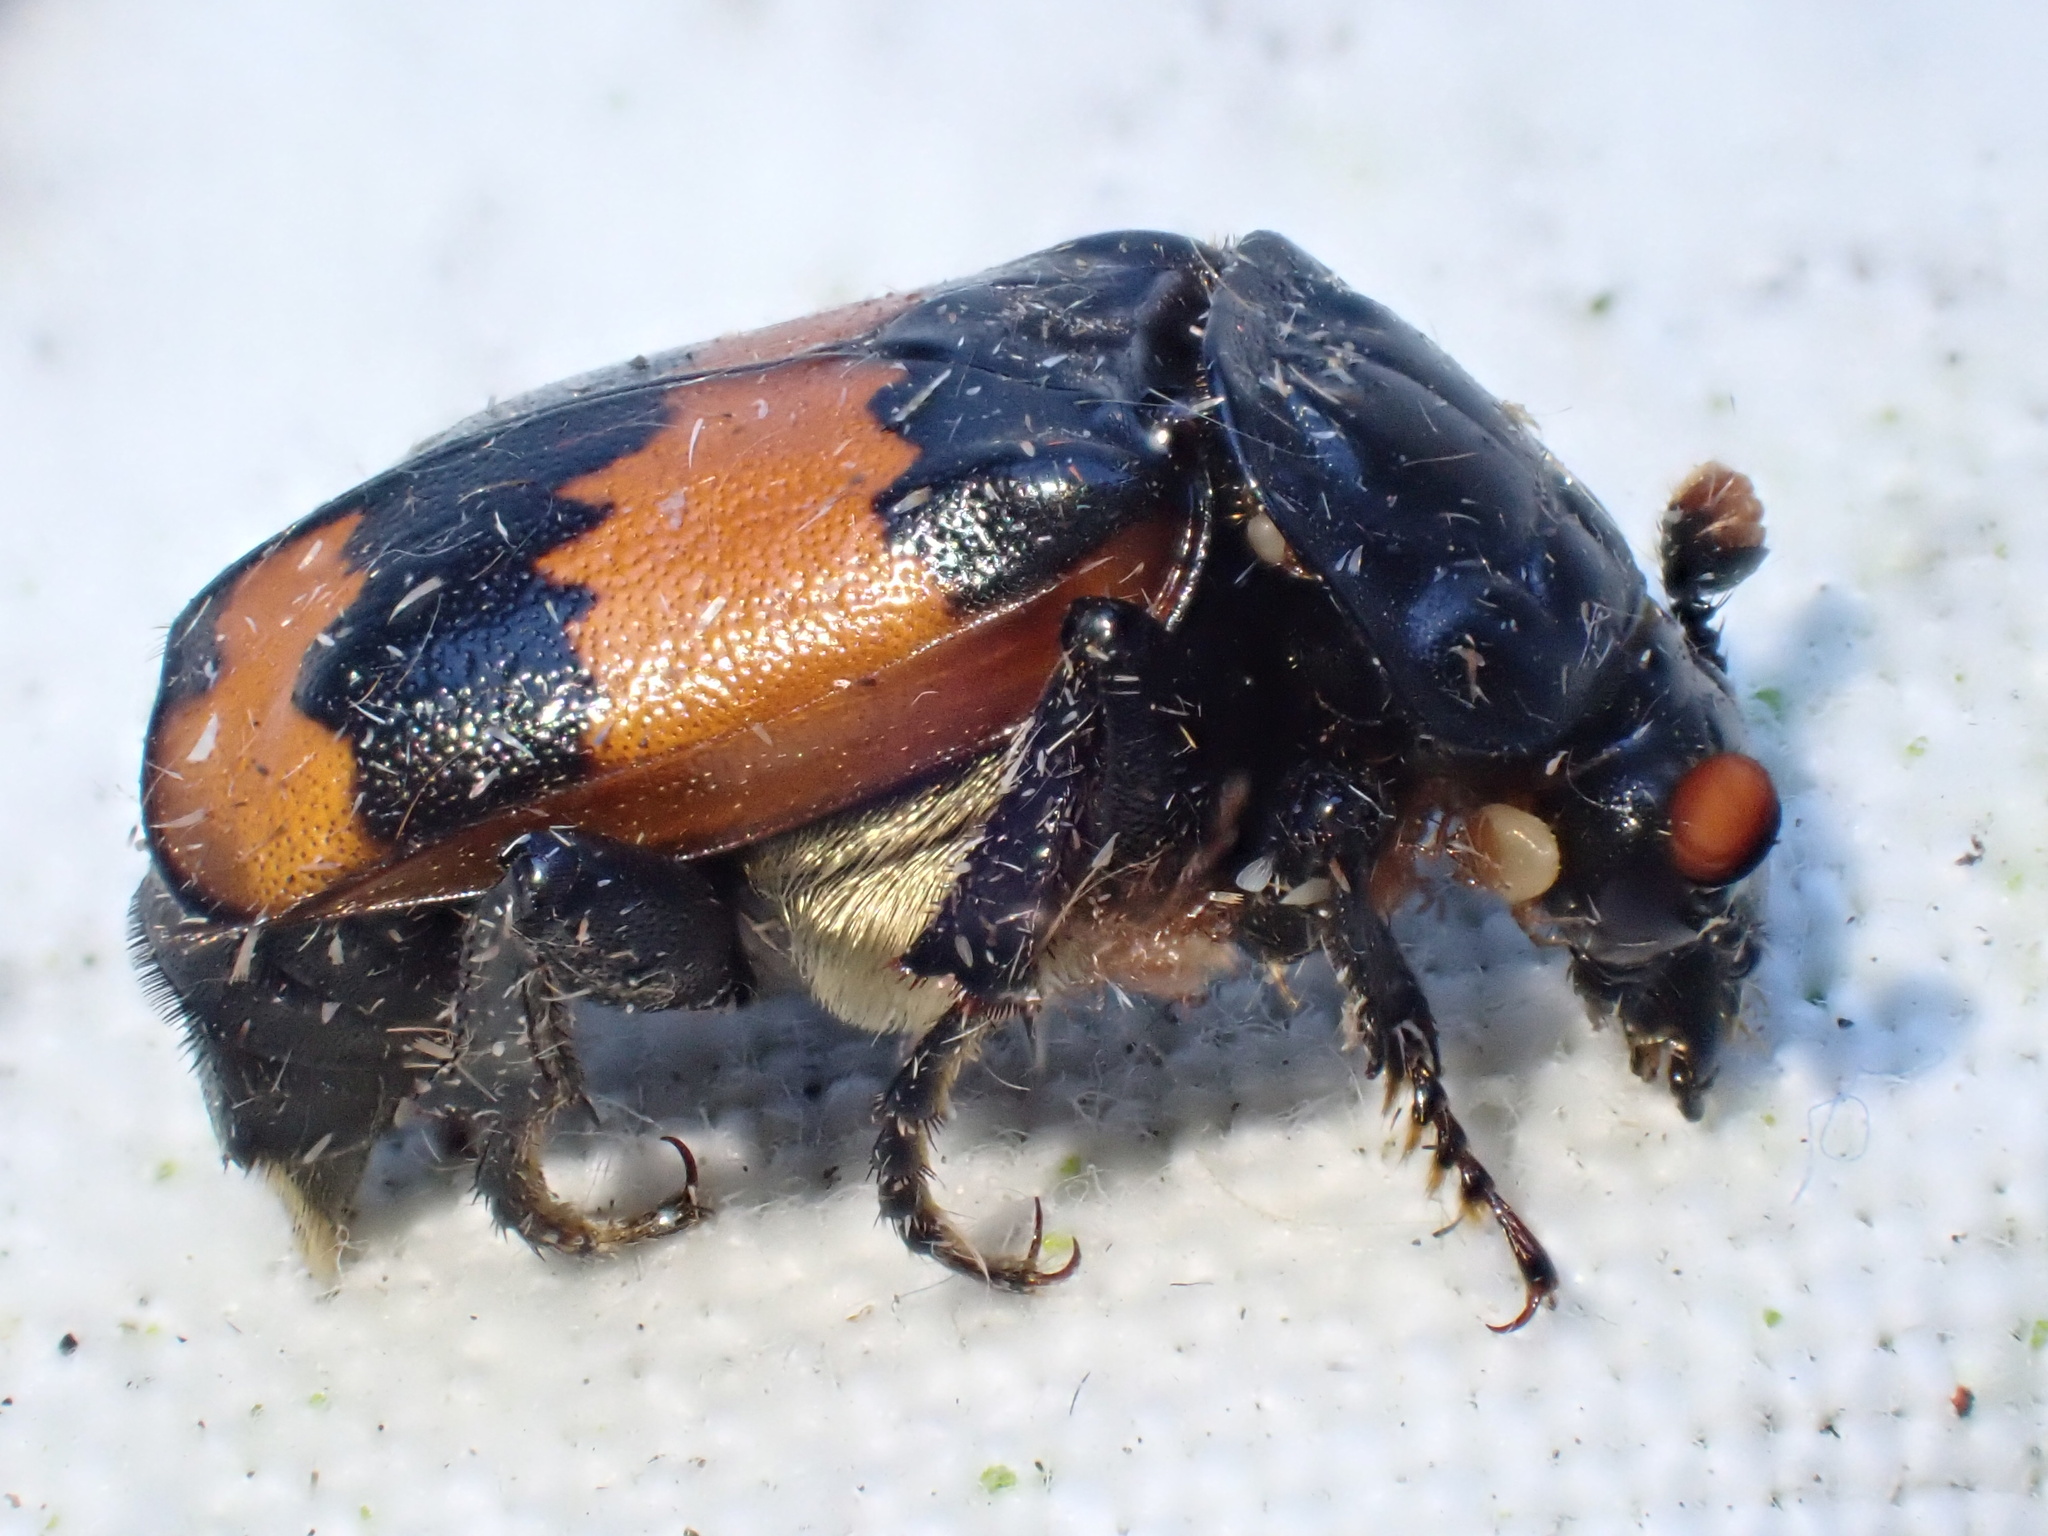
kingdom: Animalia
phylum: Arthropoda
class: Insecta
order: Coleoptera
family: Staphylinidae
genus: Nicrophorus
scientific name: Nicrophorus investigator
